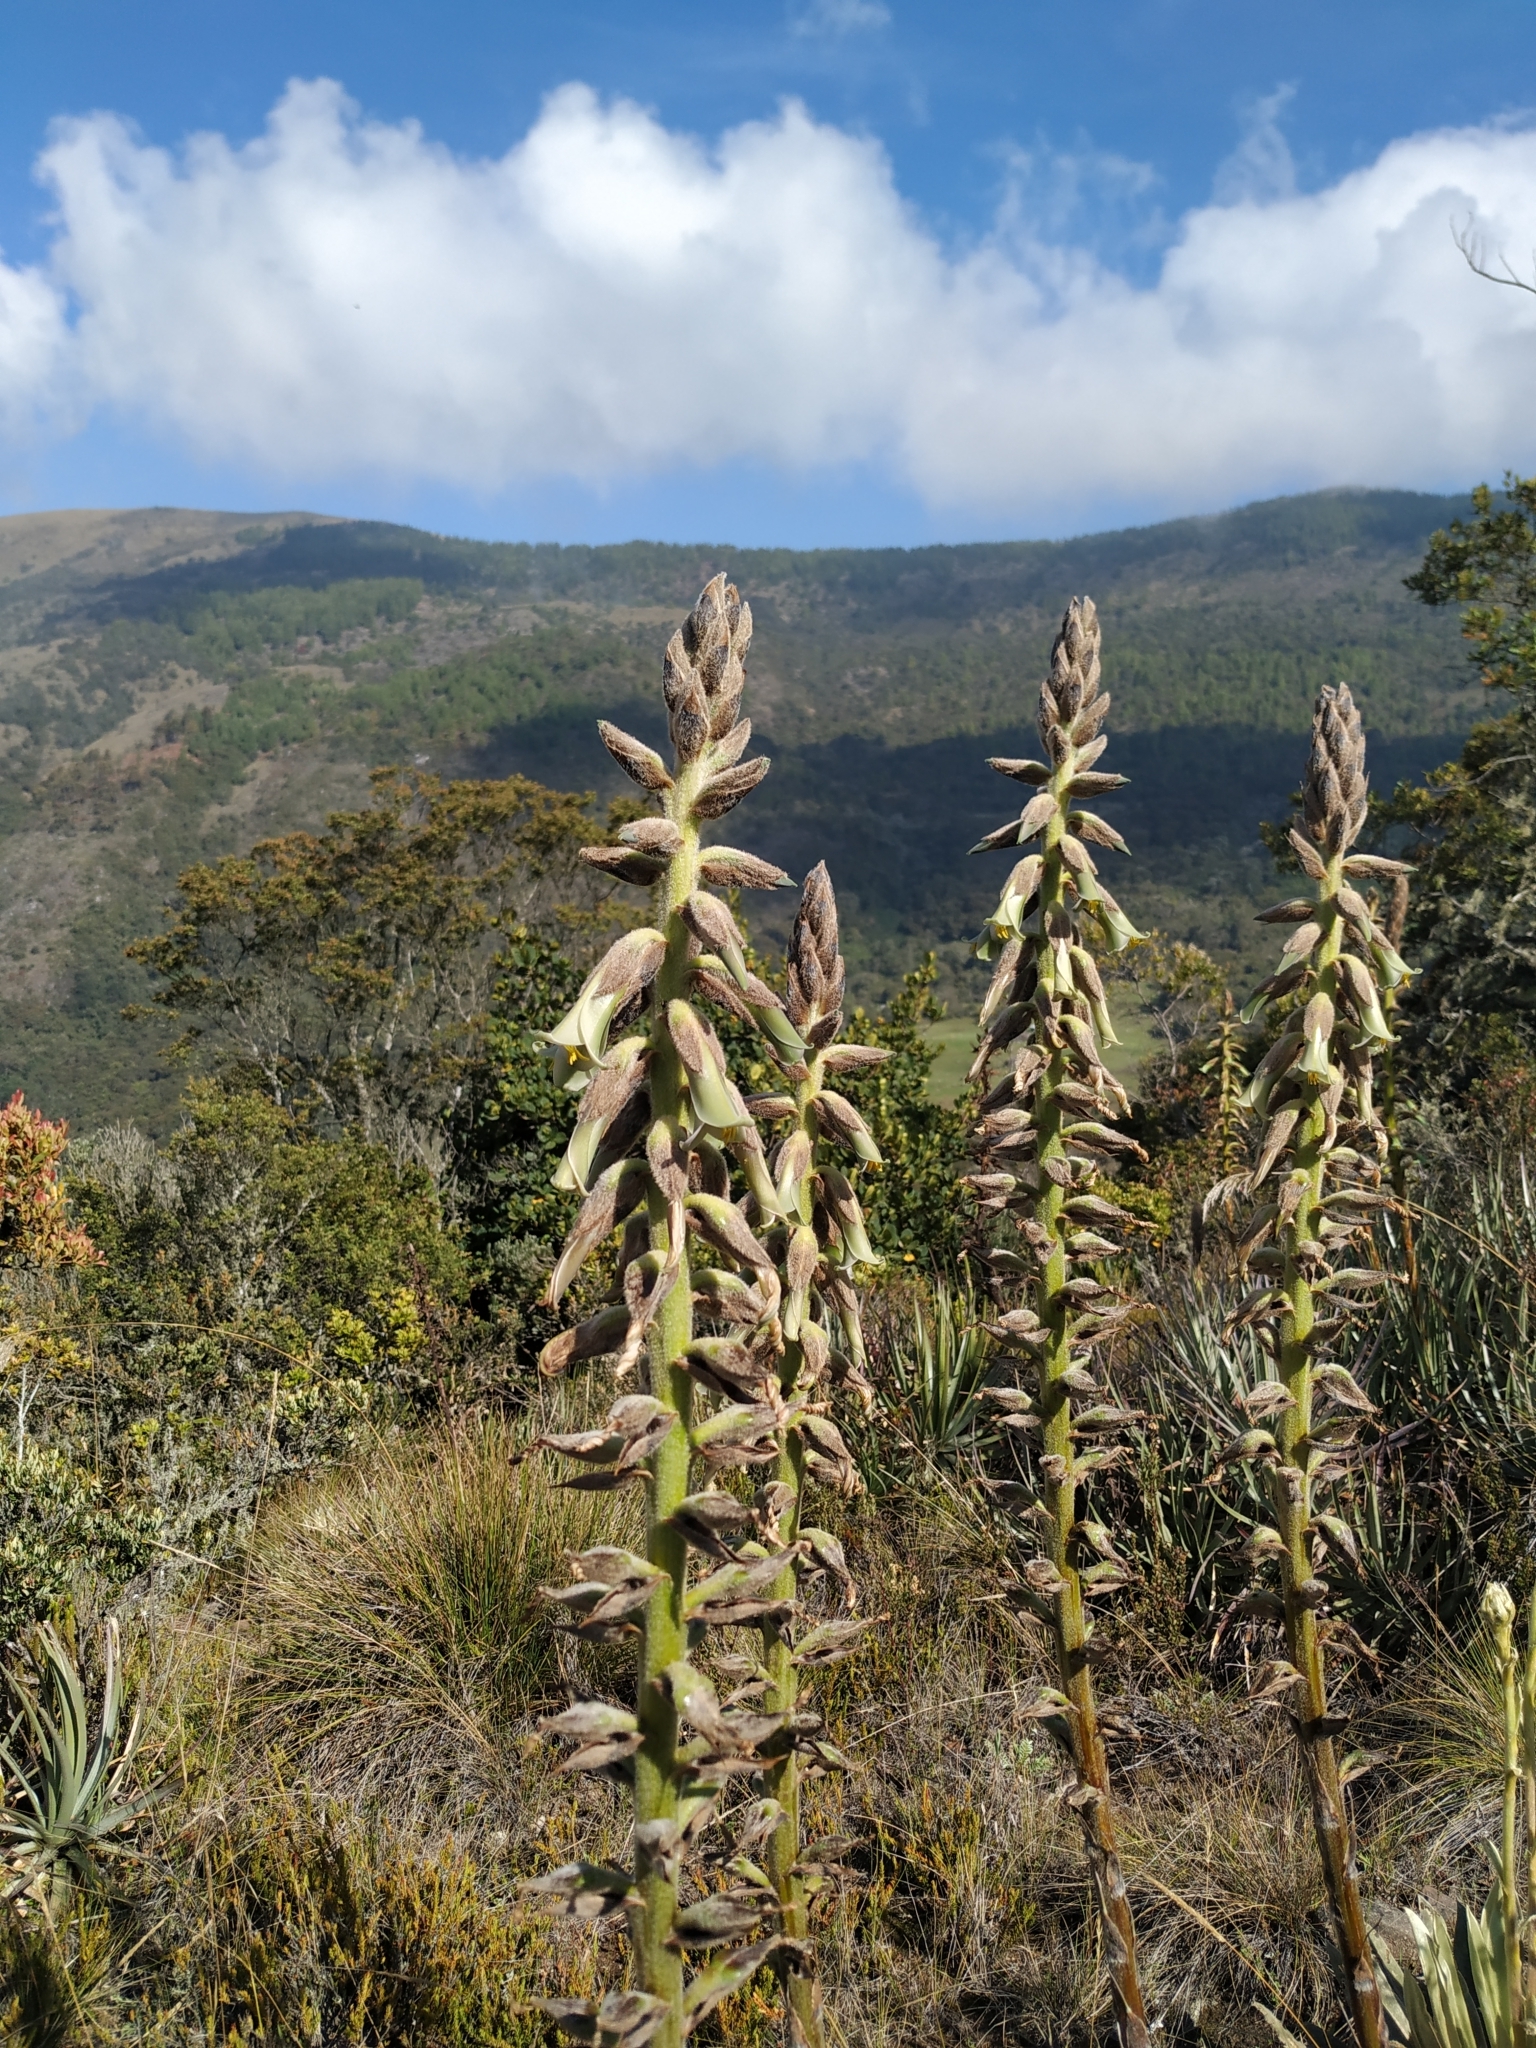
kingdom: Plantae
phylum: Tracheophyta
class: Liliopsida
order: Poales
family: Bromeliaceae
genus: Puya
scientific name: Puya nitida
